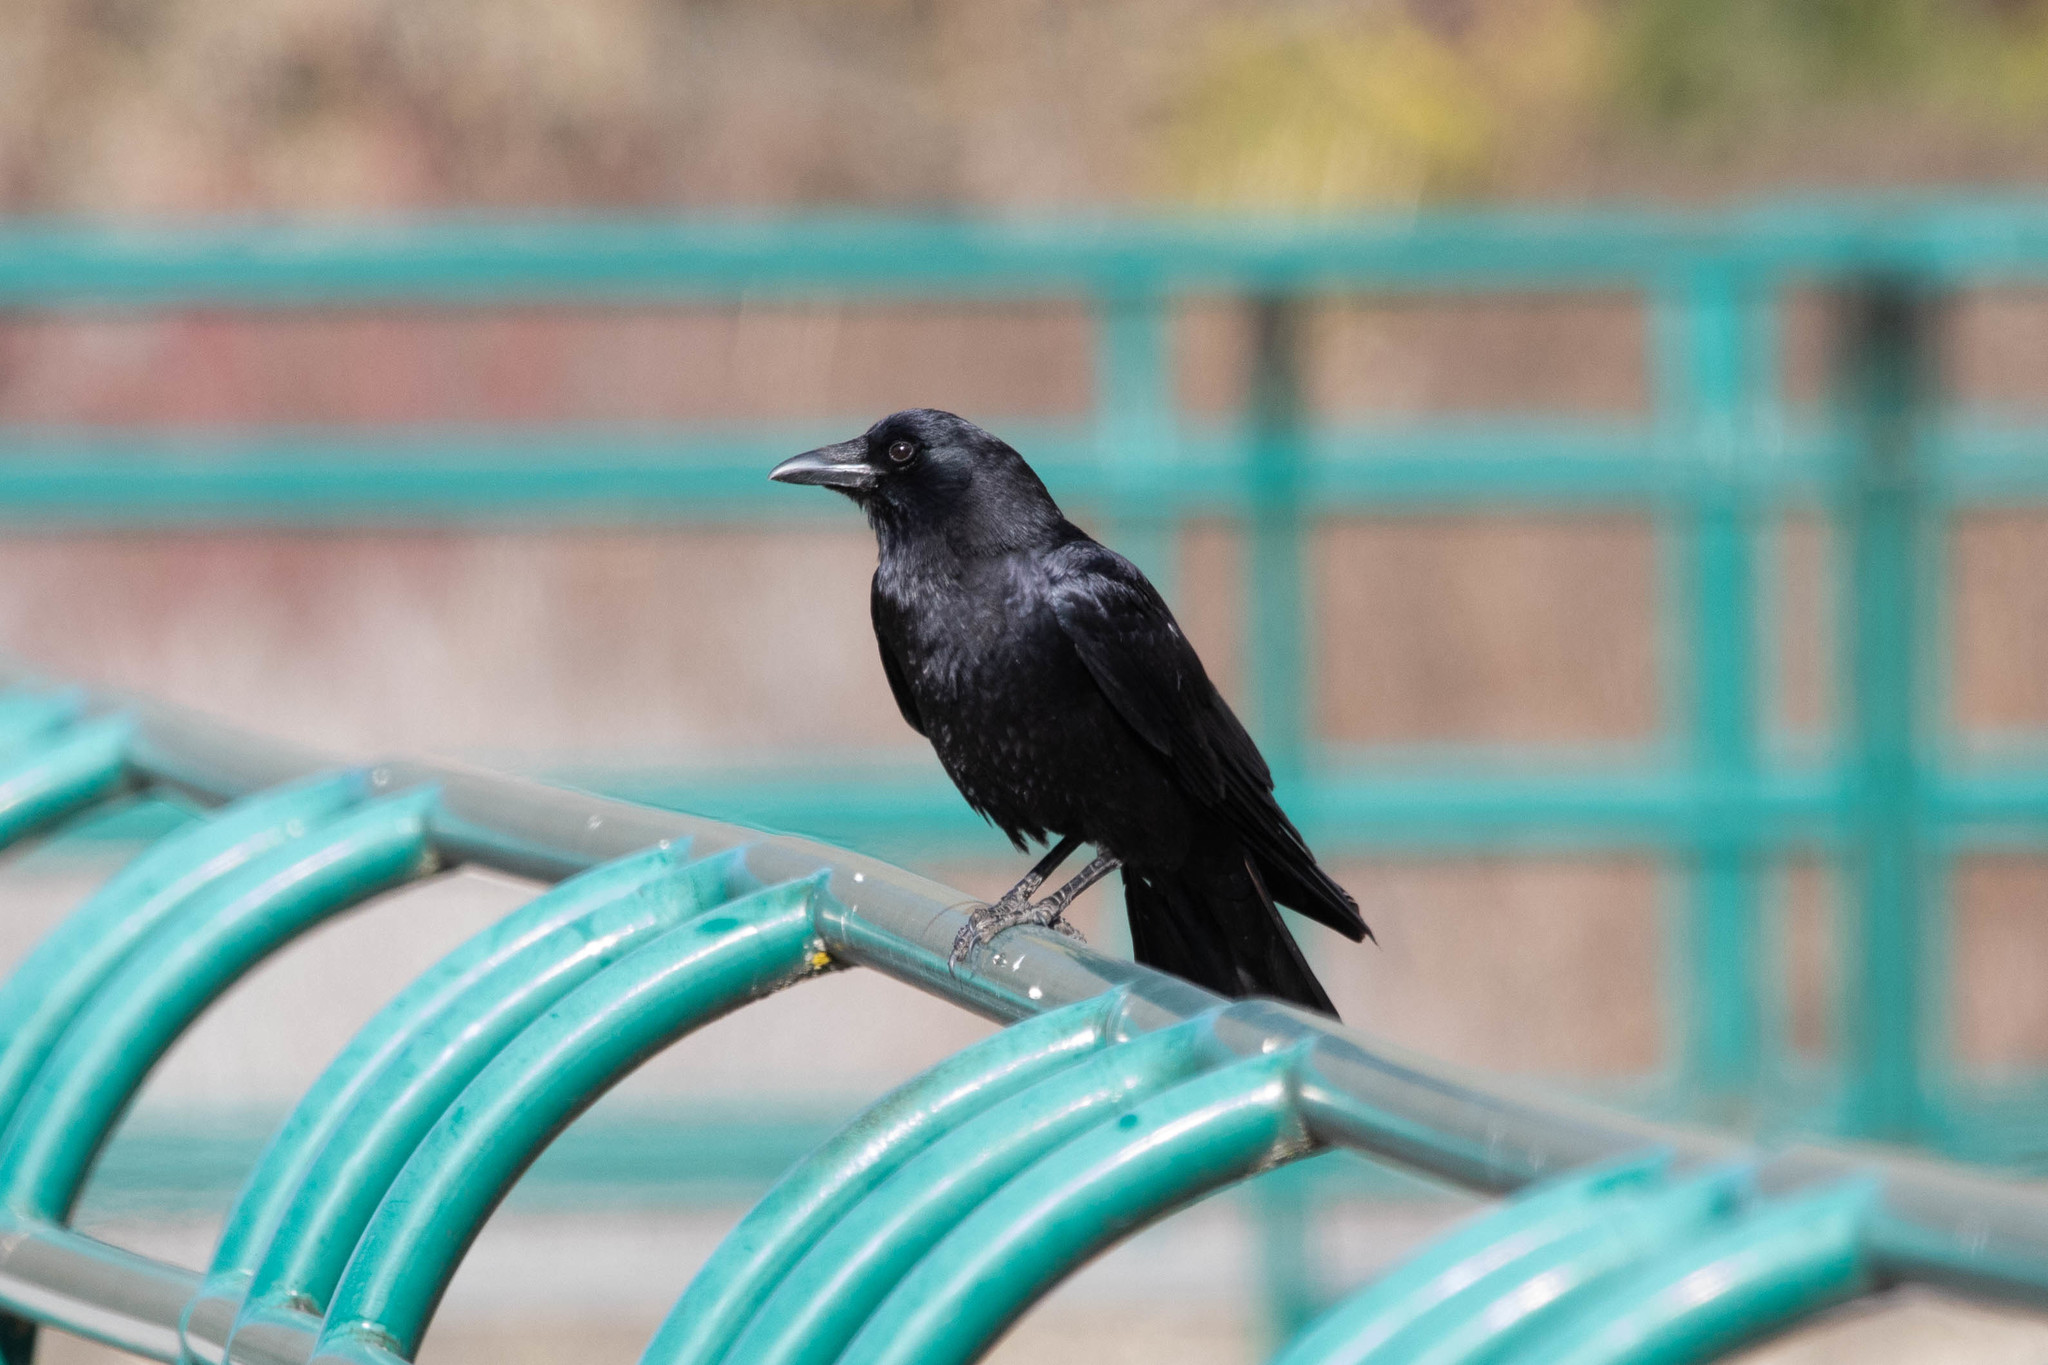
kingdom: Animalia
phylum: Chordata
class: Aves
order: Passeriformes
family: Corvidae
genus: Corvus
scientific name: Corvus brachyrhynchos
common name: American crow
